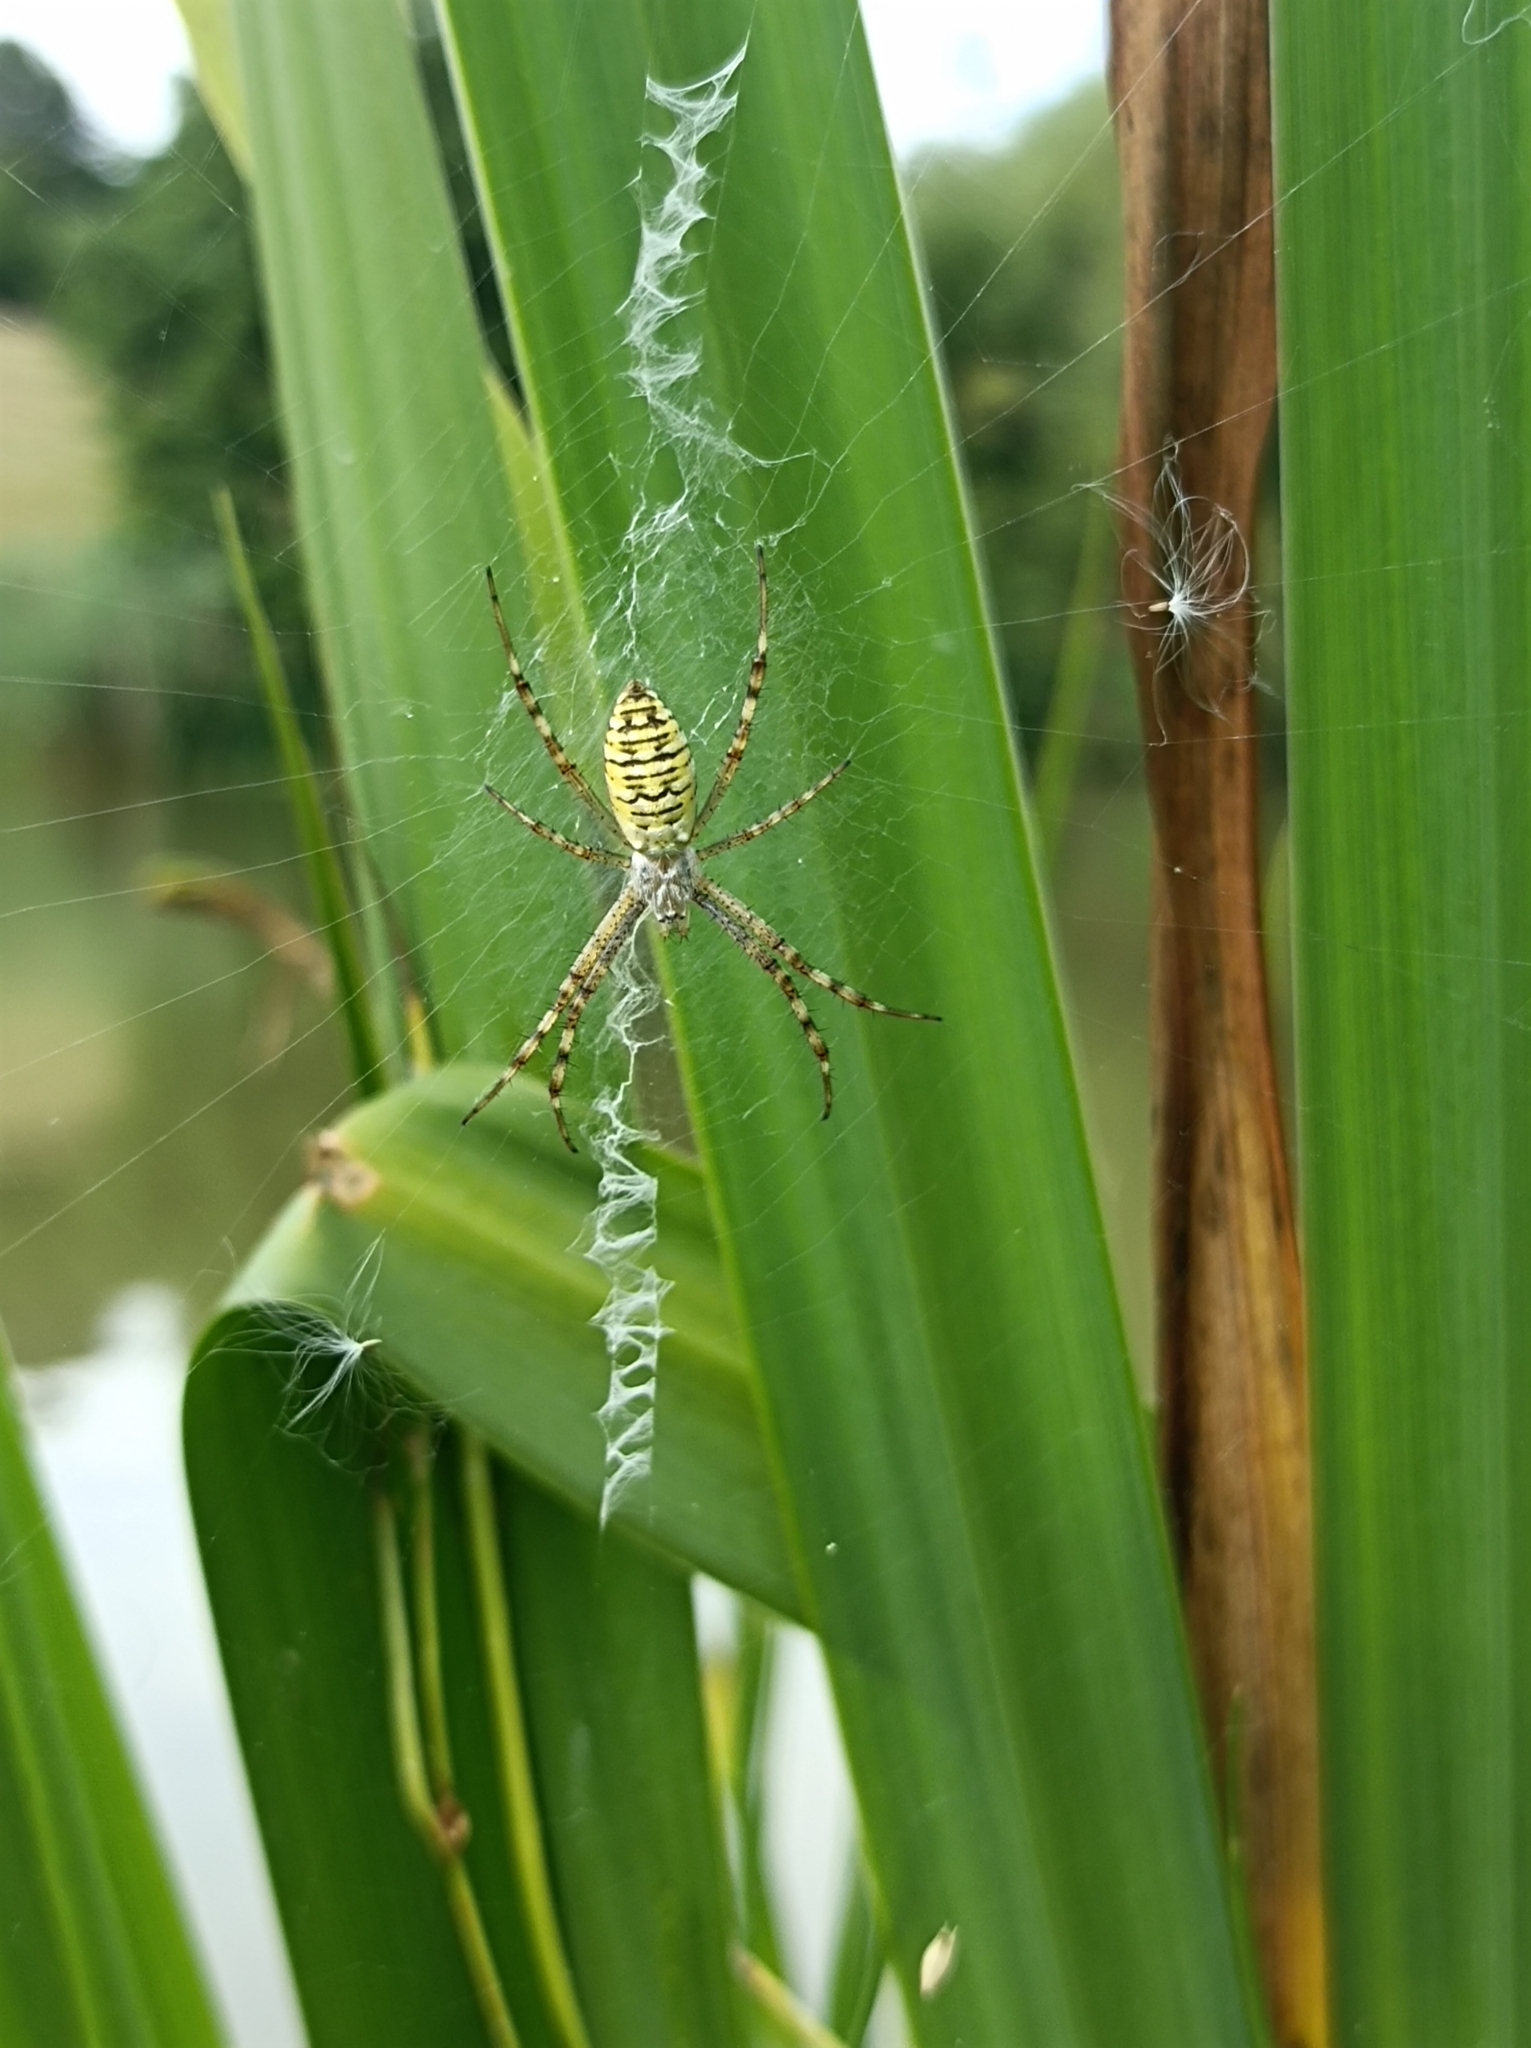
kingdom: Animalia
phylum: Arthropoda
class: Arachnida
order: Araneae
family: Araneidae
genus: Argiope
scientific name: Argiope bruennichi
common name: Wasp spider
